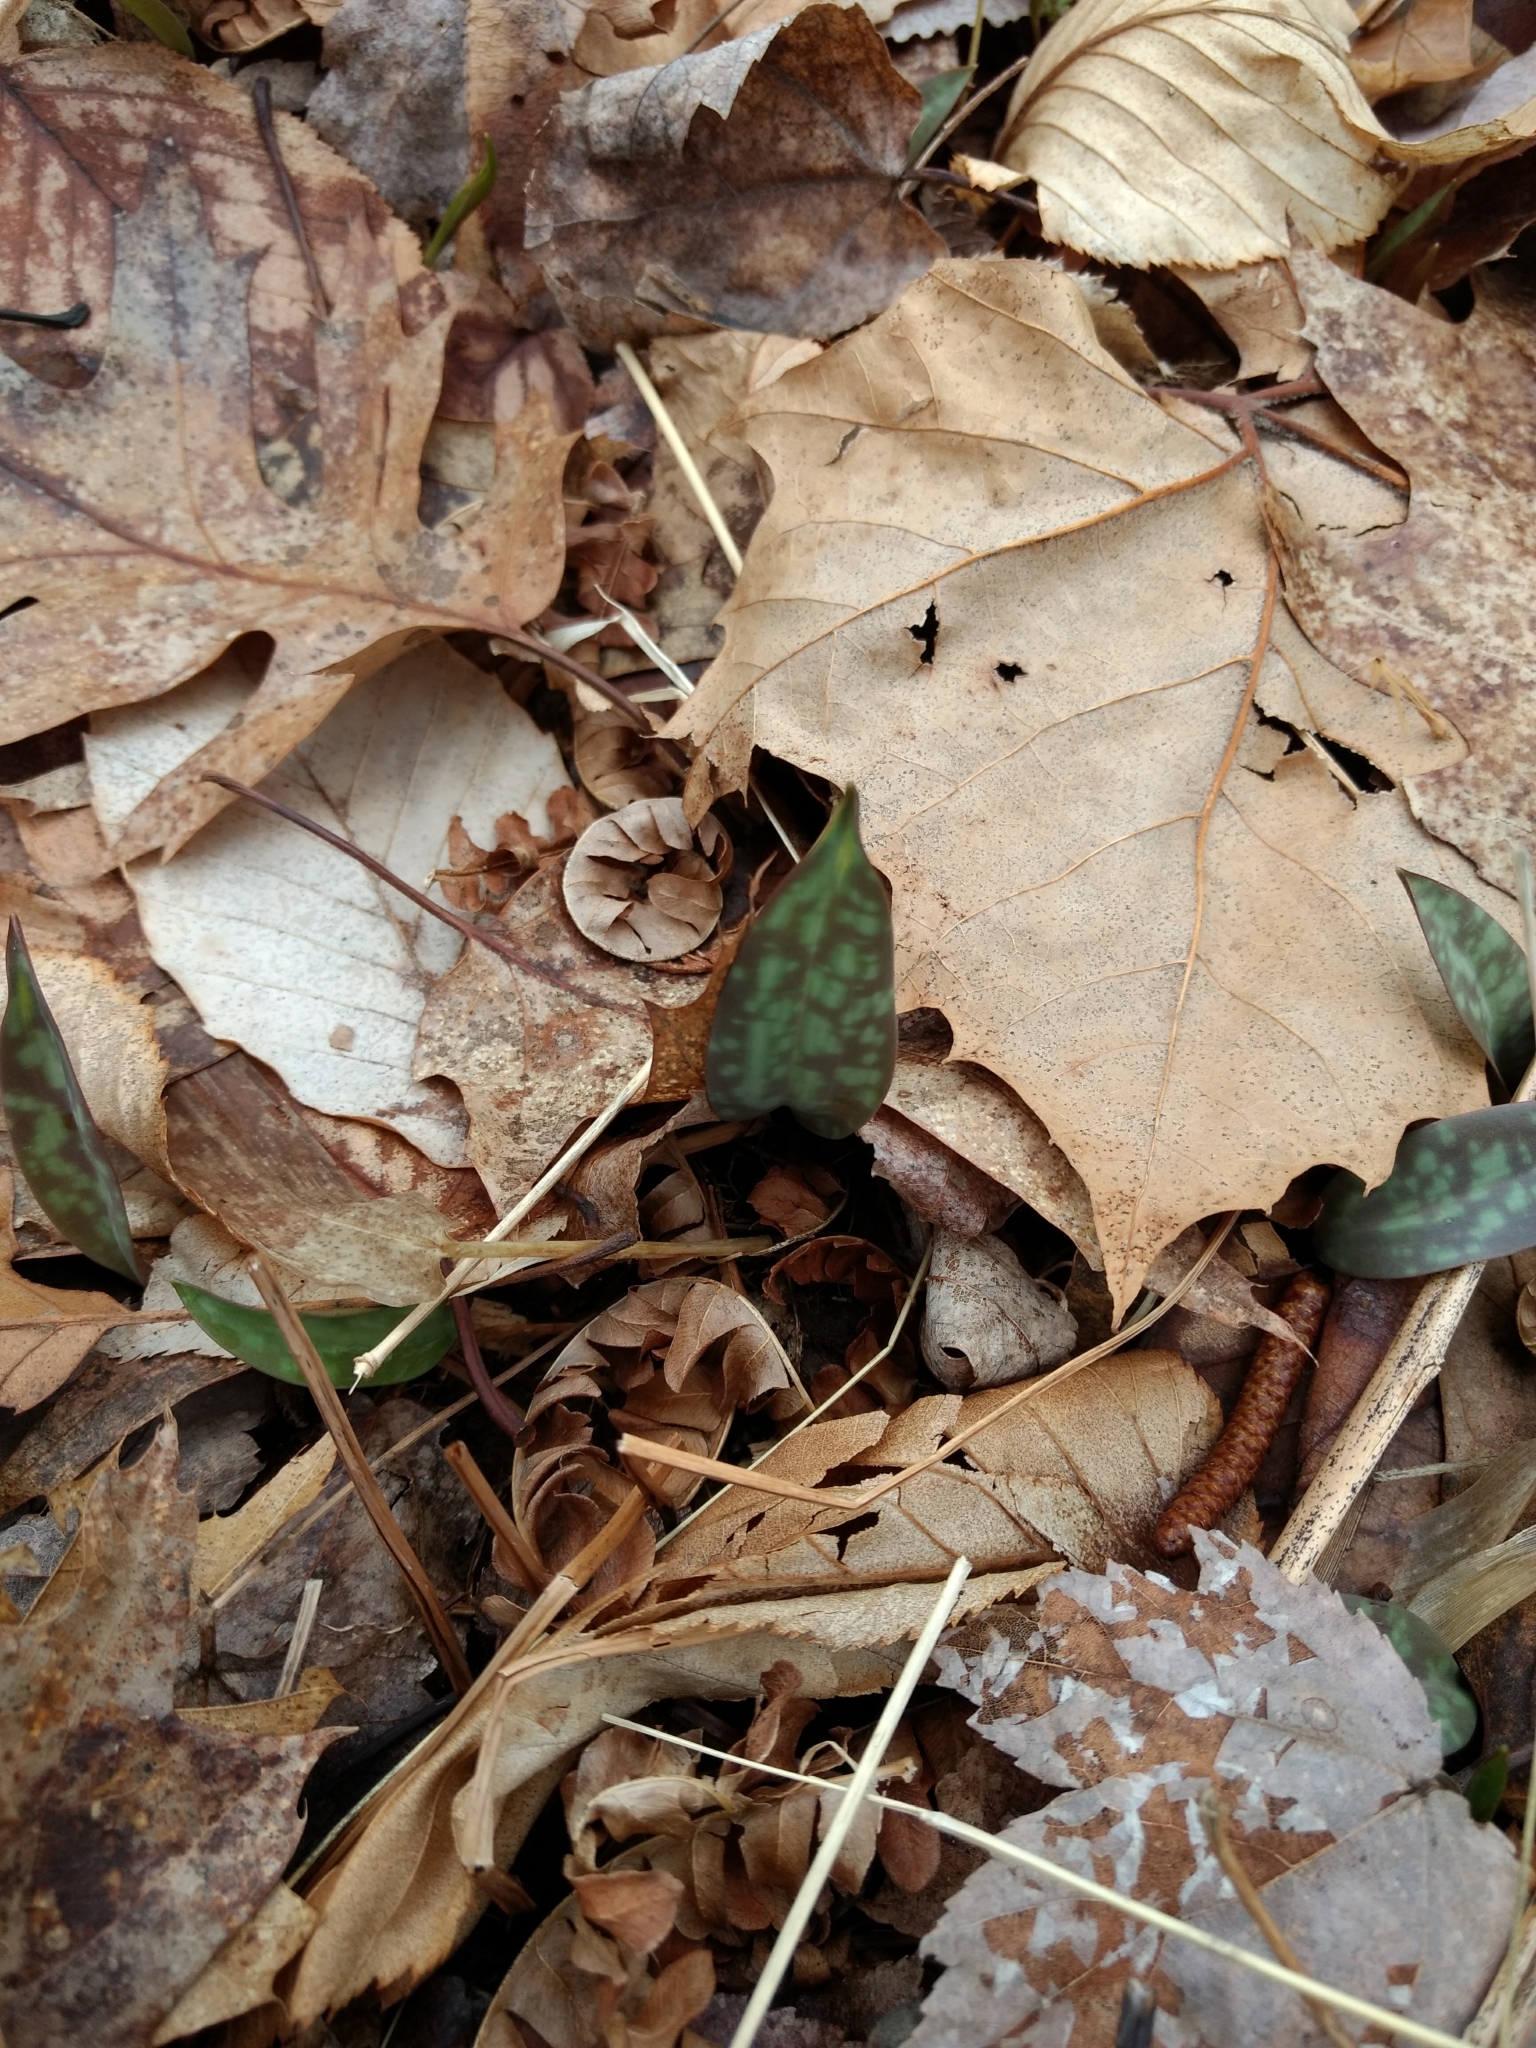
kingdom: Plantae
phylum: Tracheophyta
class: Liliopsida
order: Liliales
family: Liliaceae
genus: Erythronium
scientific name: Erythronium americanum
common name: Yellow adder's-tongue
